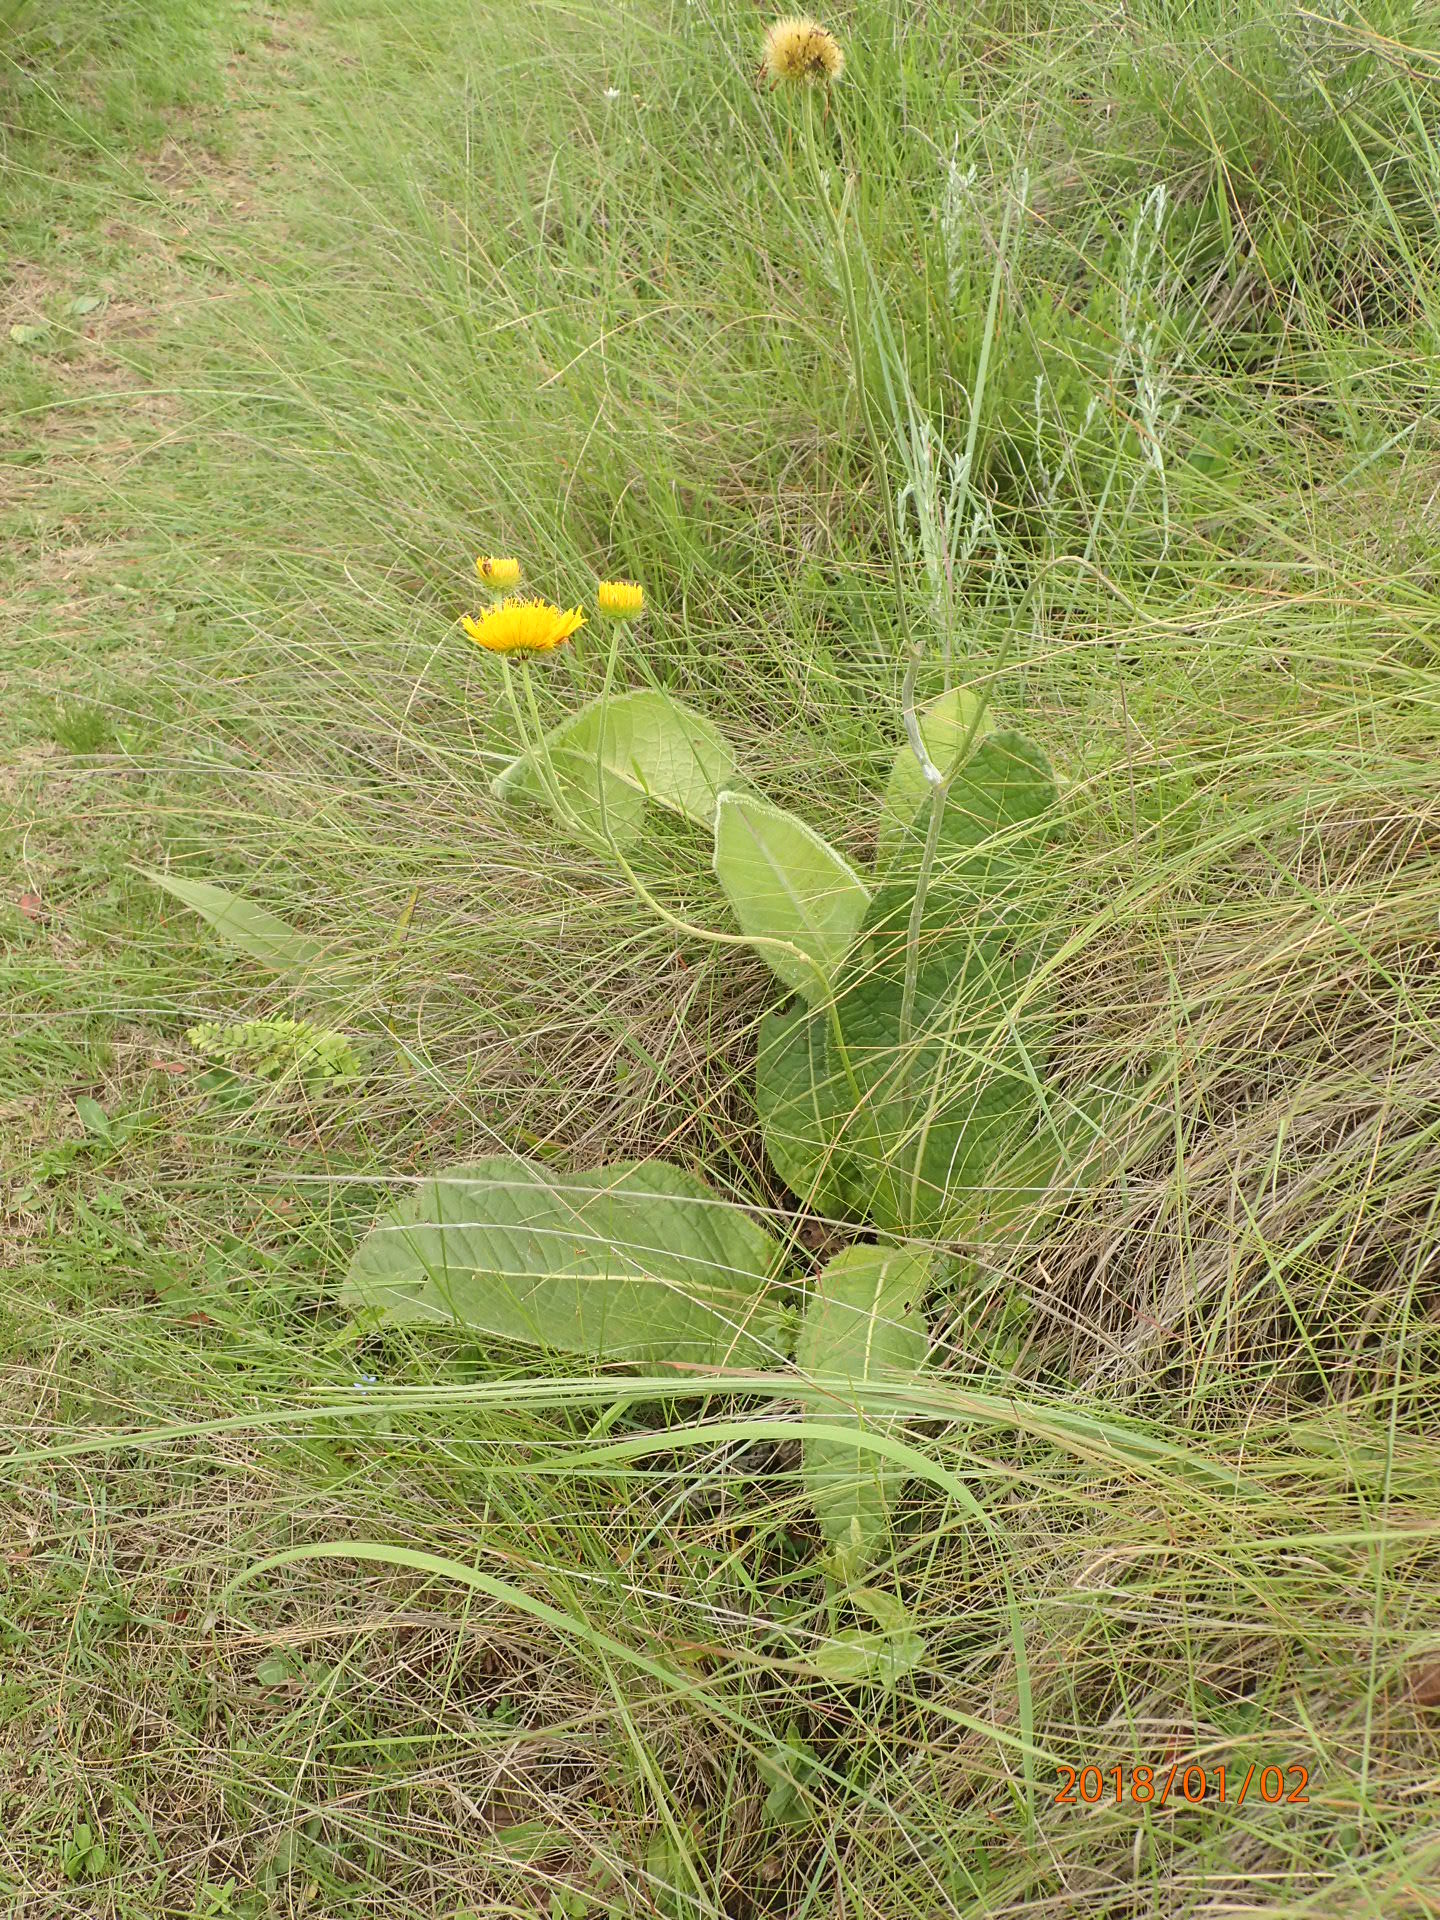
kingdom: Plantae
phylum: Tracheophyta
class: Magnoliopsida
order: Asterales
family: Asteraceae
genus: Berkheya
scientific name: Berkheya setifera
